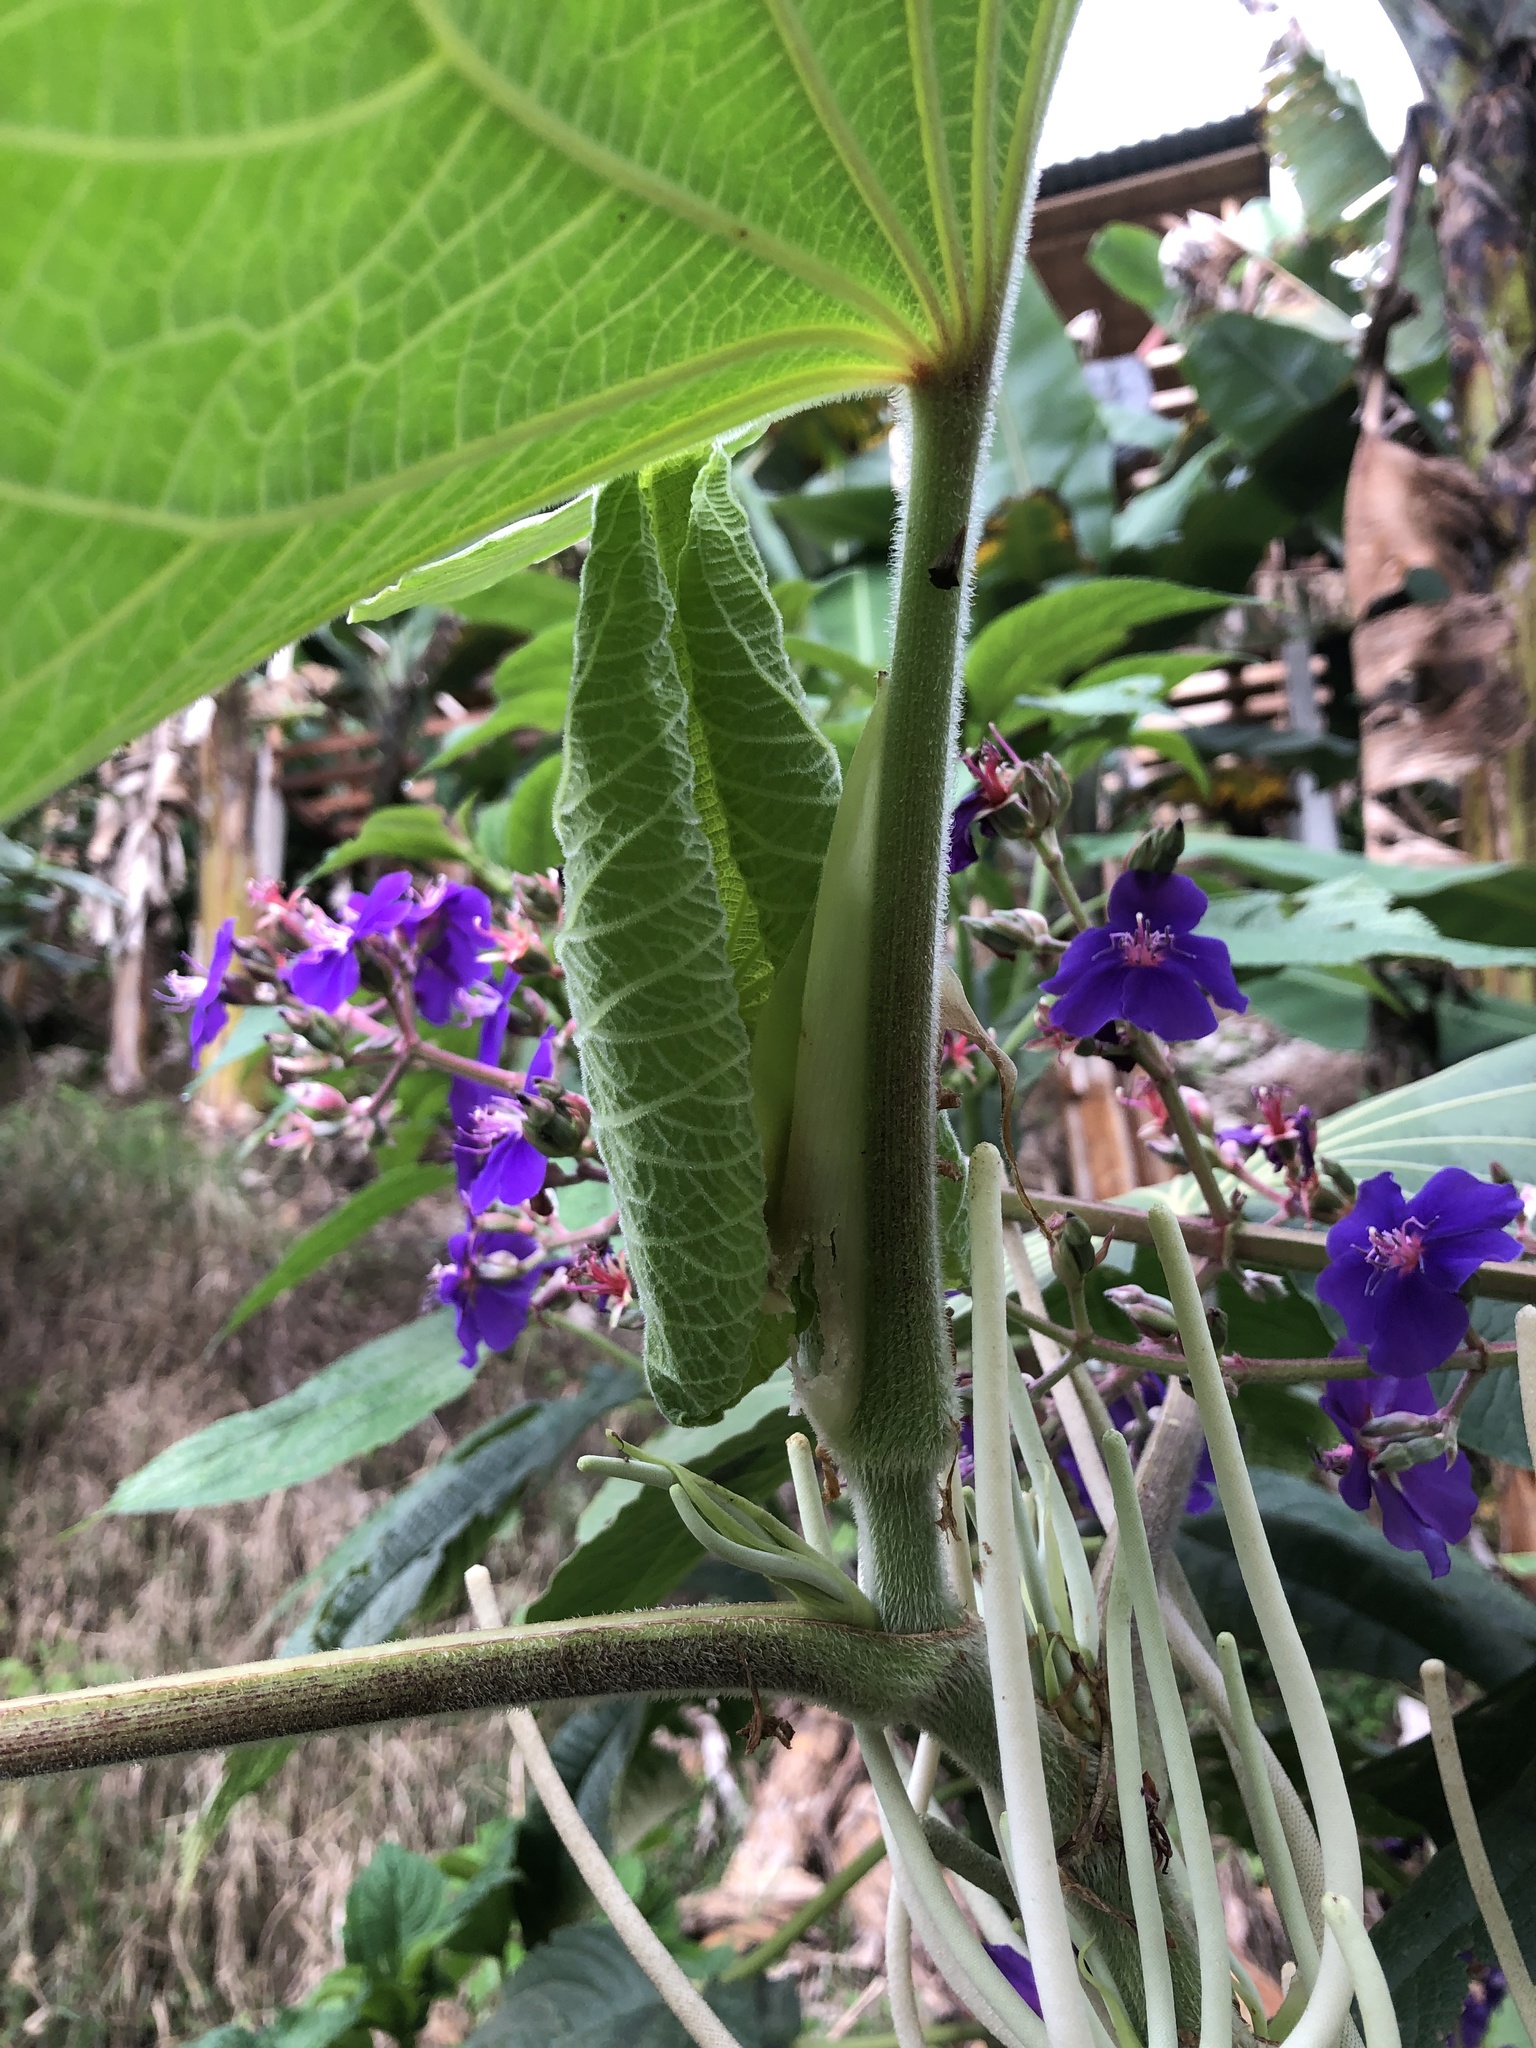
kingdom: Plantae
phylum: Tracheophyta
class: Magnoliopsida
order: Piperales
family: Piperaceae
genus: Piper
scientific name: Piper umbellatum
